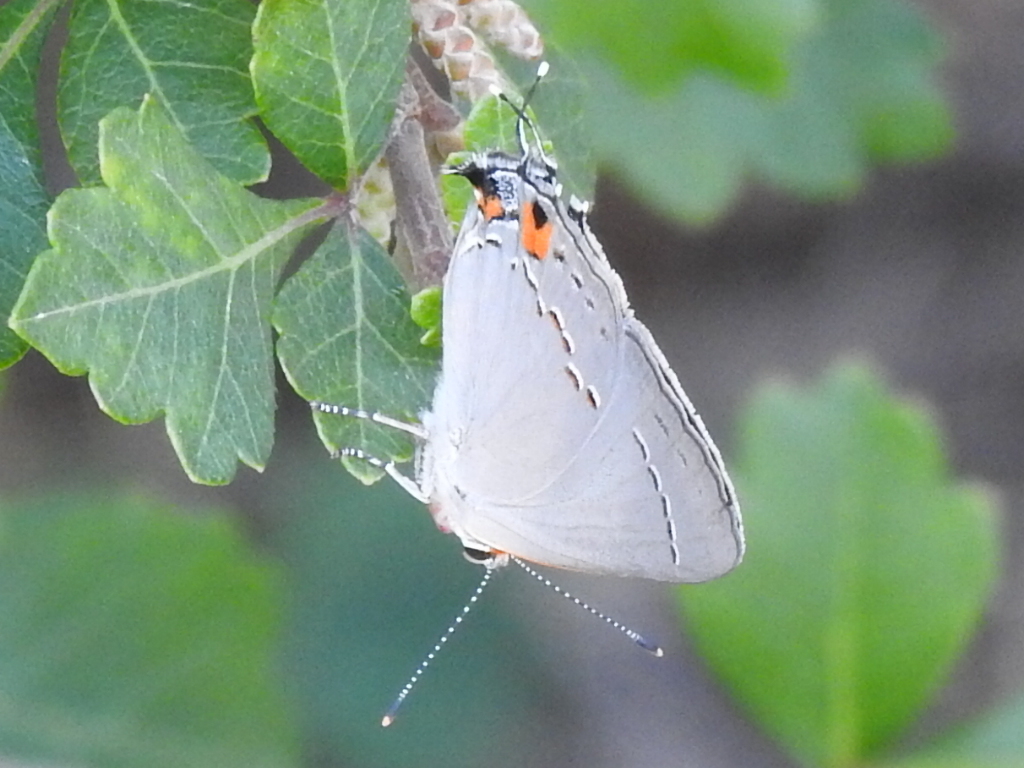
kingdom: Animalia
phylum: Arthropoda
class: Insecta
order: Lepidoptera
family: Lycaenidae
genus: Strymon
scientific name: Strymon melinus
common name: Gray hairstreak
